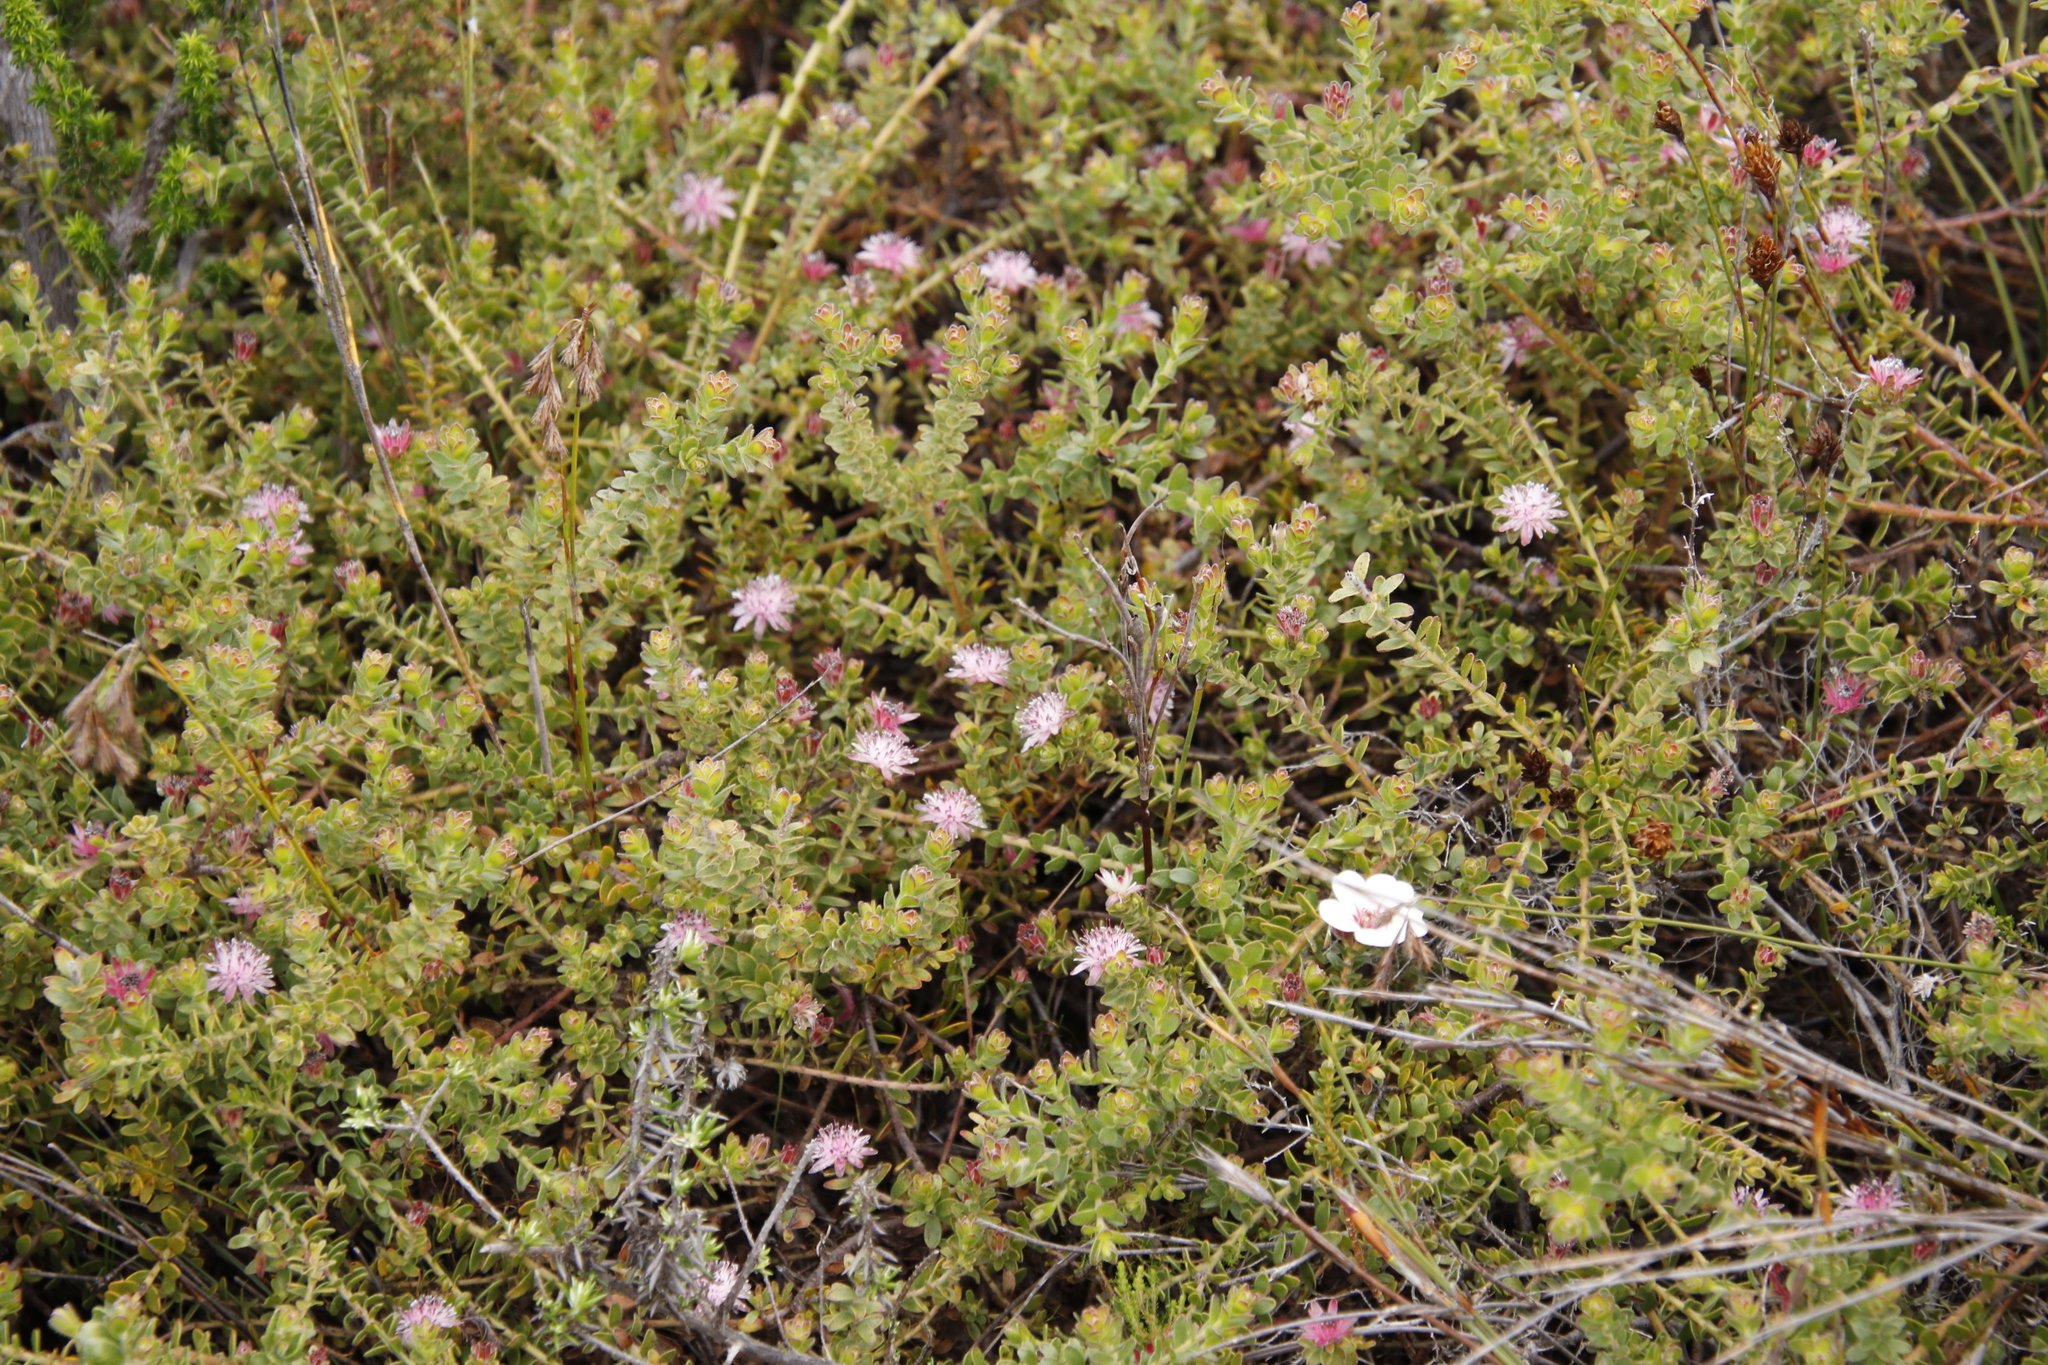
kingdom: Plantae
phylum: Tracheophyta
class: Magnoliopsida
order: Proteales
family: Proteaceae
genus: Diastella
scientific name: Diastella divaricata
